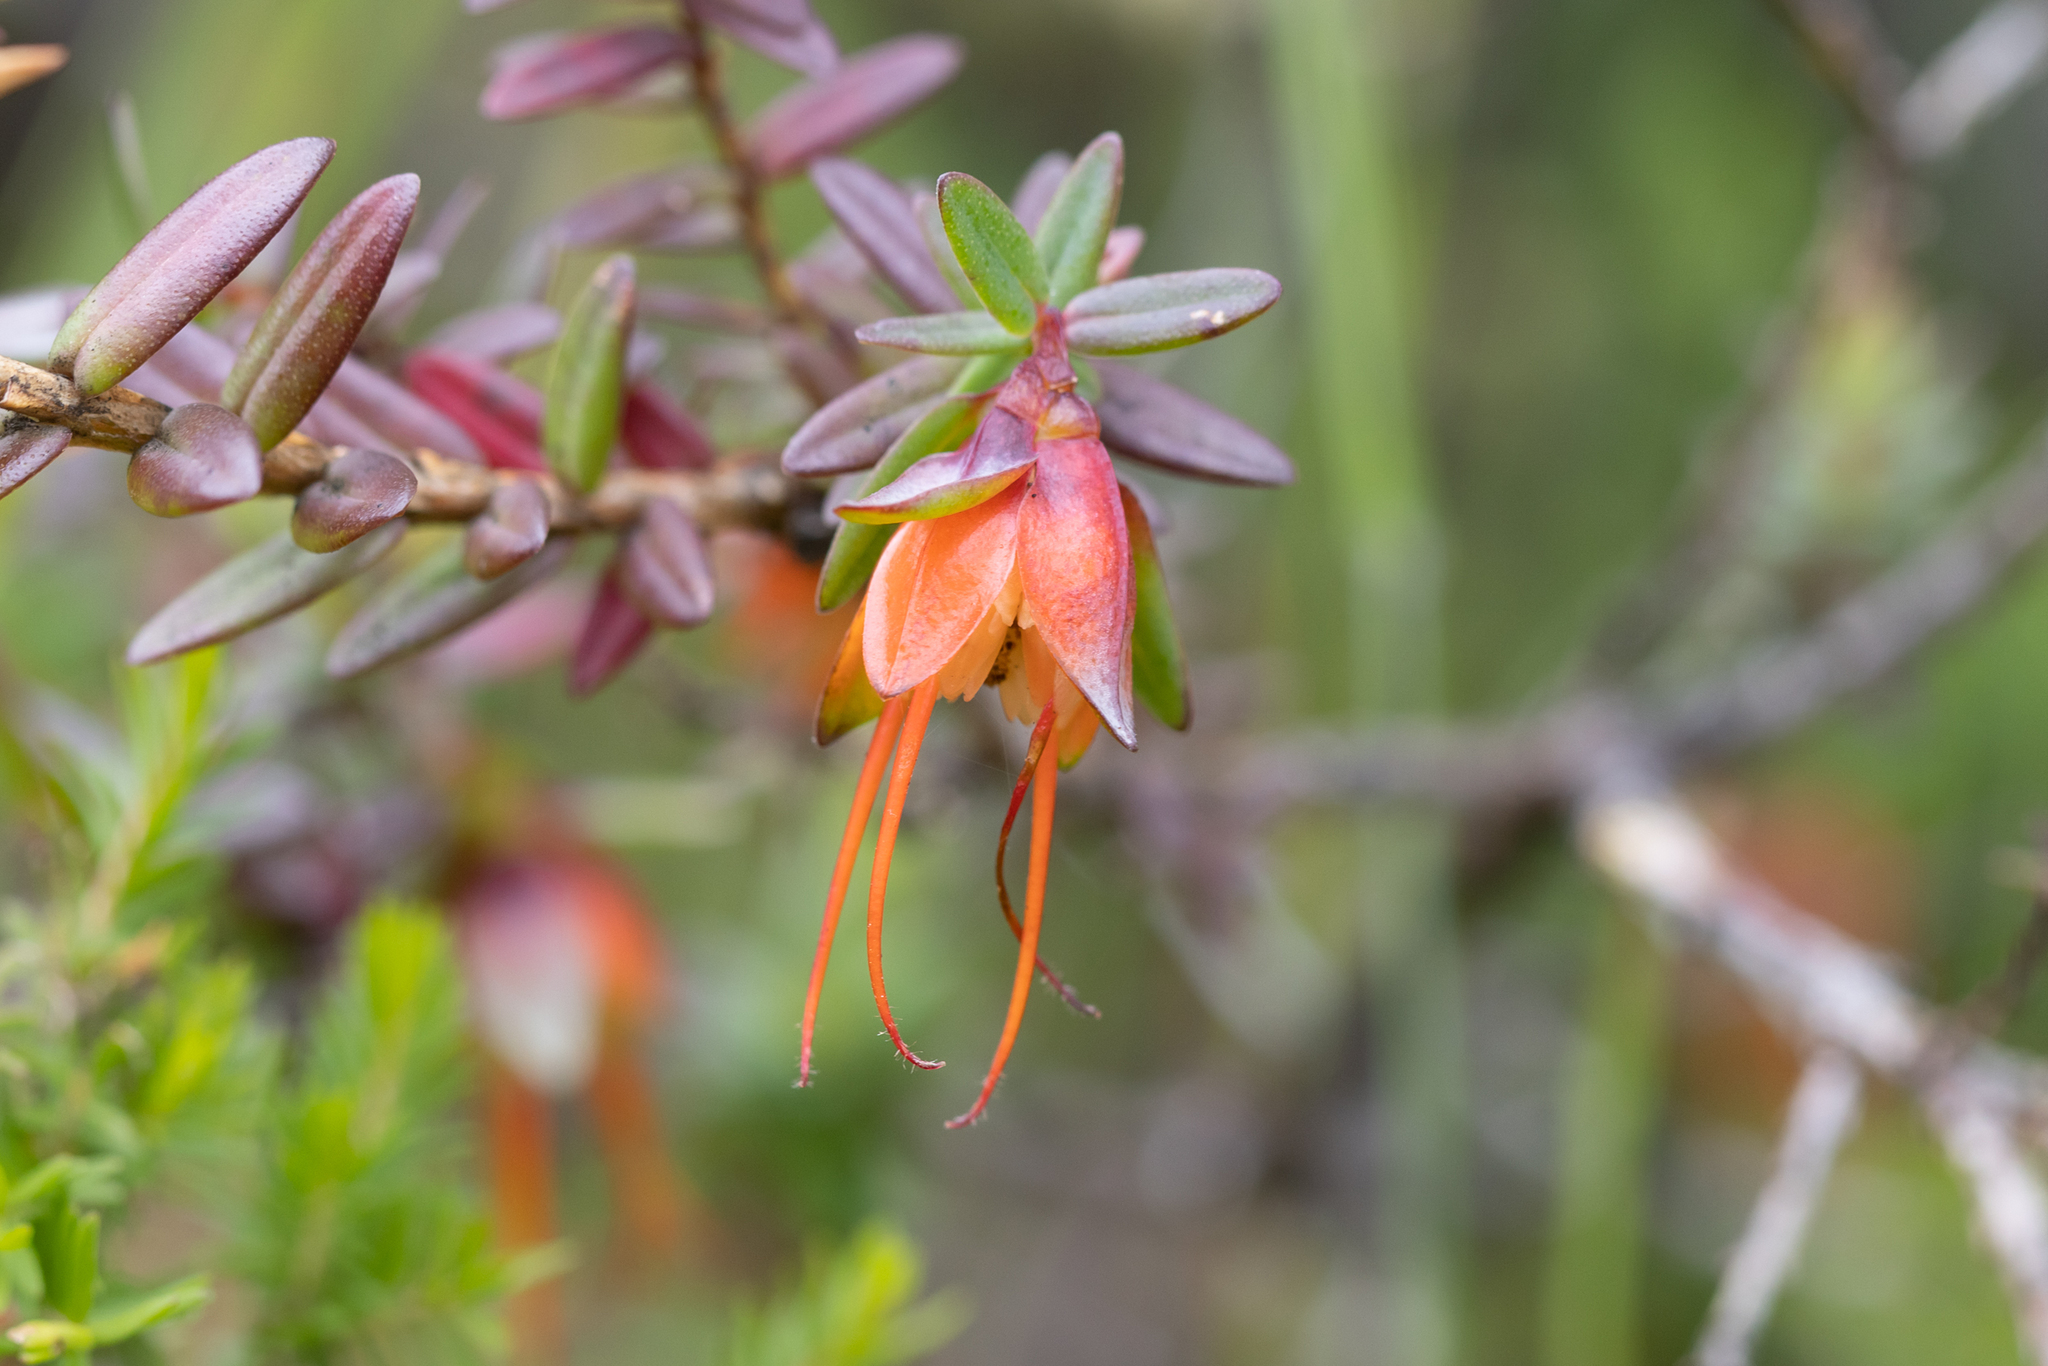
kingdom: Plantae
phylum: Tracheophyta
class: Magnoliopsida
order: Myrtales
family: Myrtaceae
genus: Darwinia
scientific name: Darwinia citriodora
